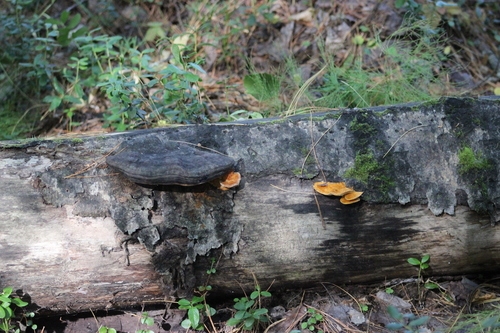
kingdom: Fungi
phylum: Basidiomycota
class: Agaricomycetes
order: Polyporales
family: Pycnoporellaceae
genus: Pycnoporellus
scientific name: Pycnoporellus fulgens
